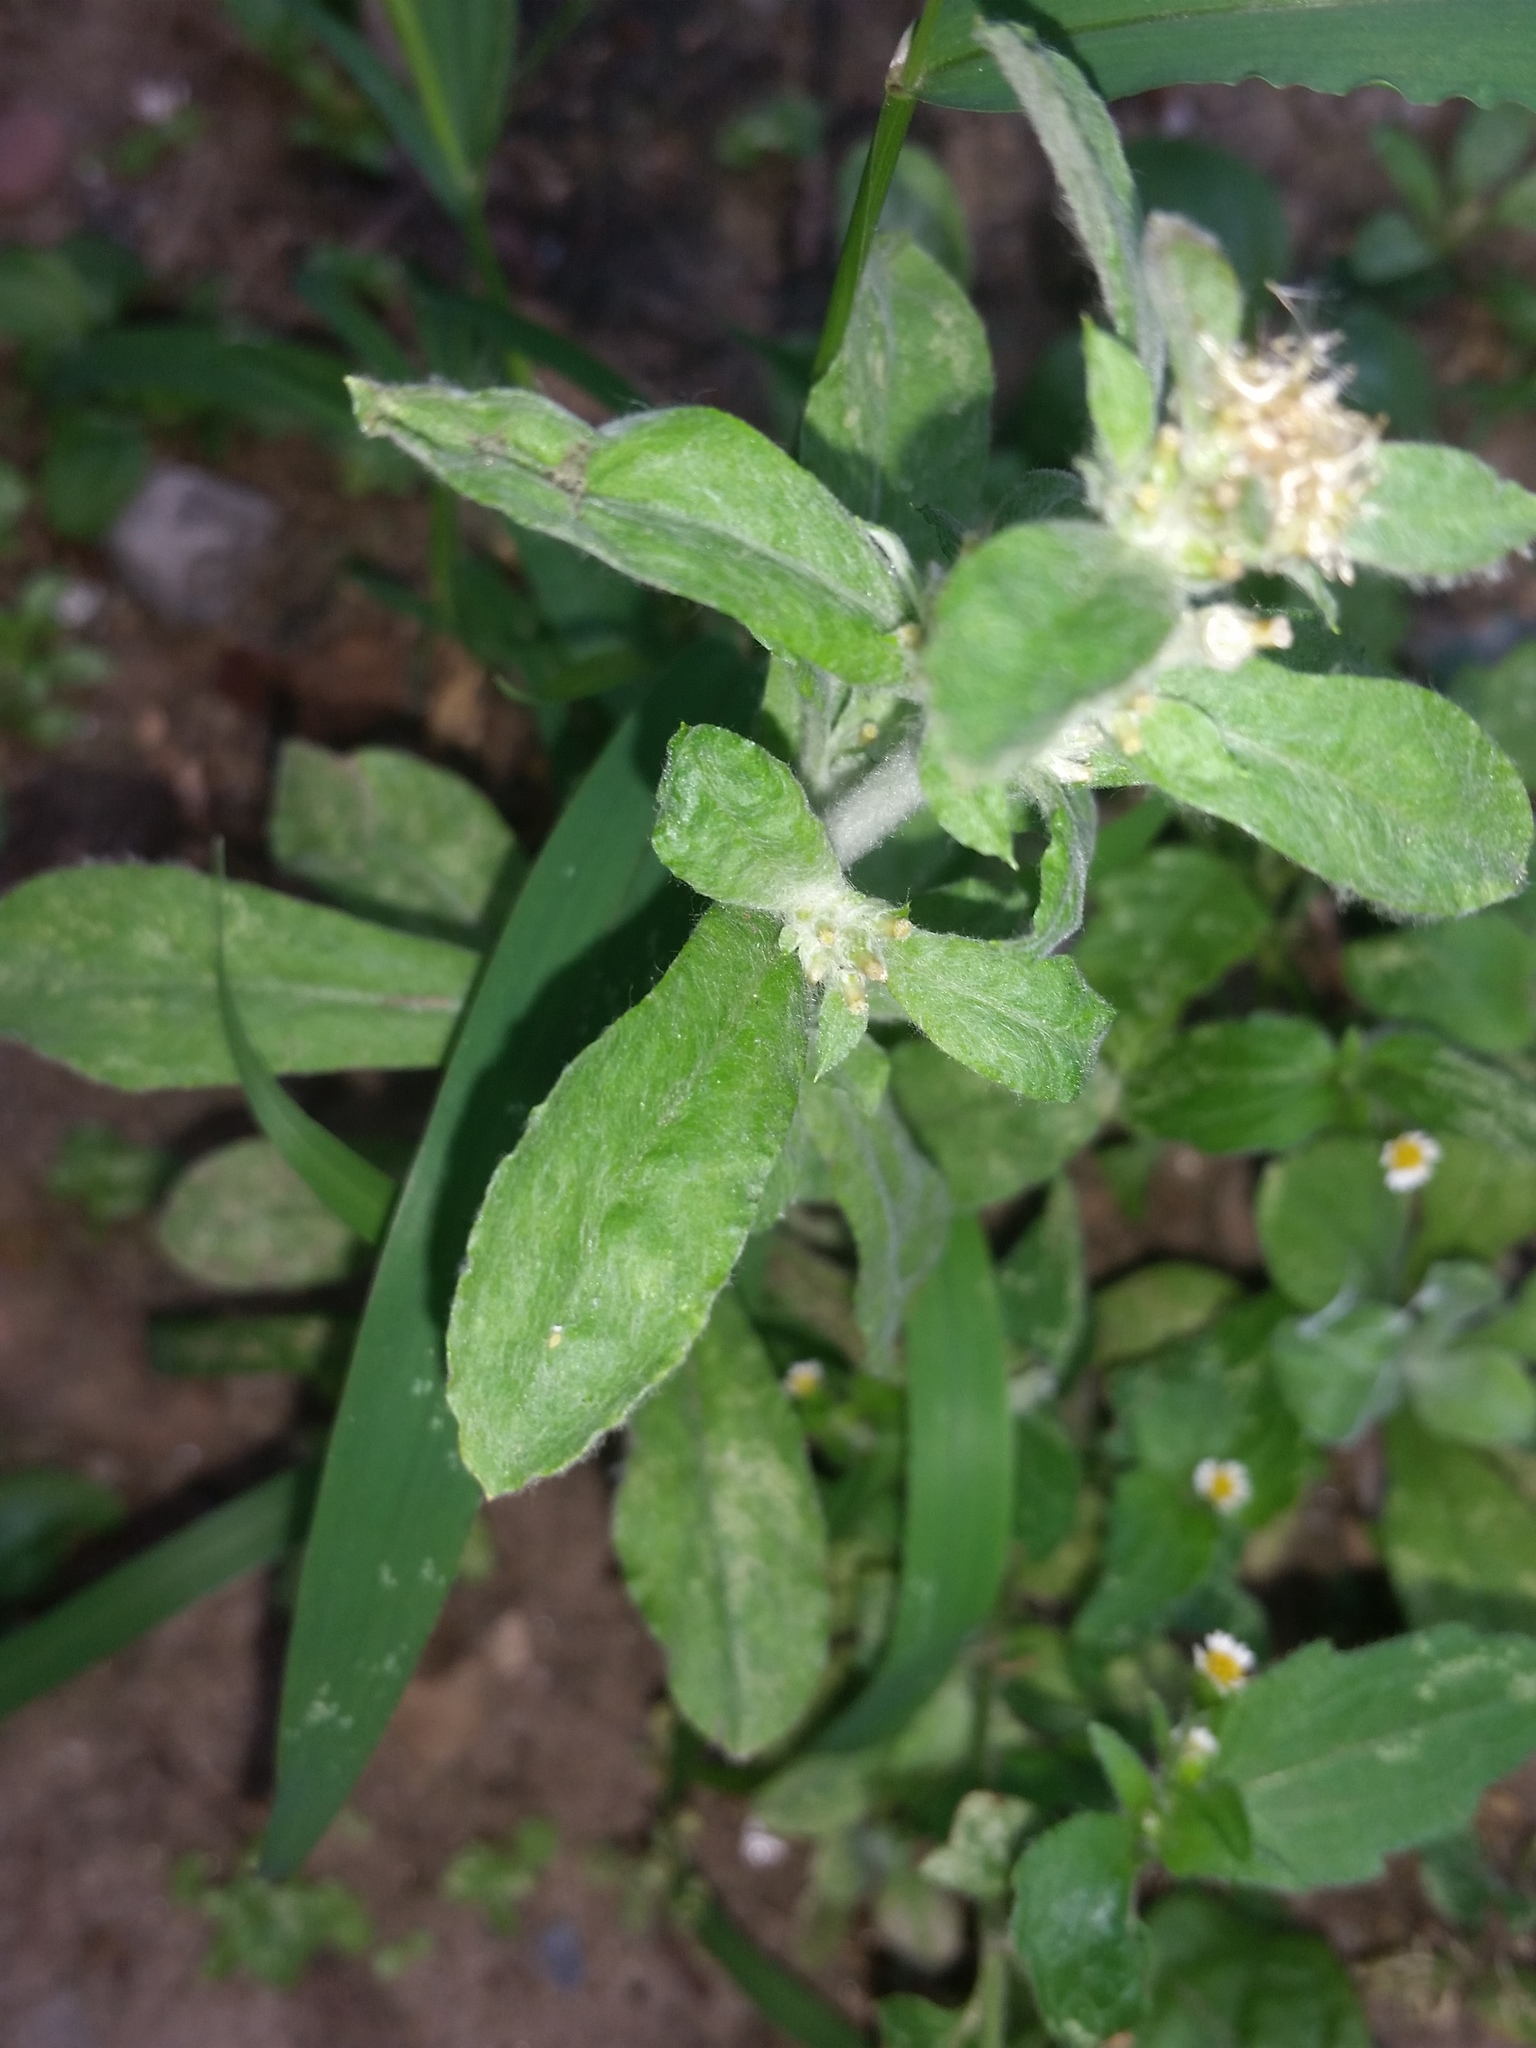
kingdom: Plantae
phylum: Tracheophyta
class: Magnoliopsida
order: Asterales
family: Asteraceae
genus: Gamochaeta
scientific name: Gamochaeta pensylvanica
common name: Pennsylvania everlasting
